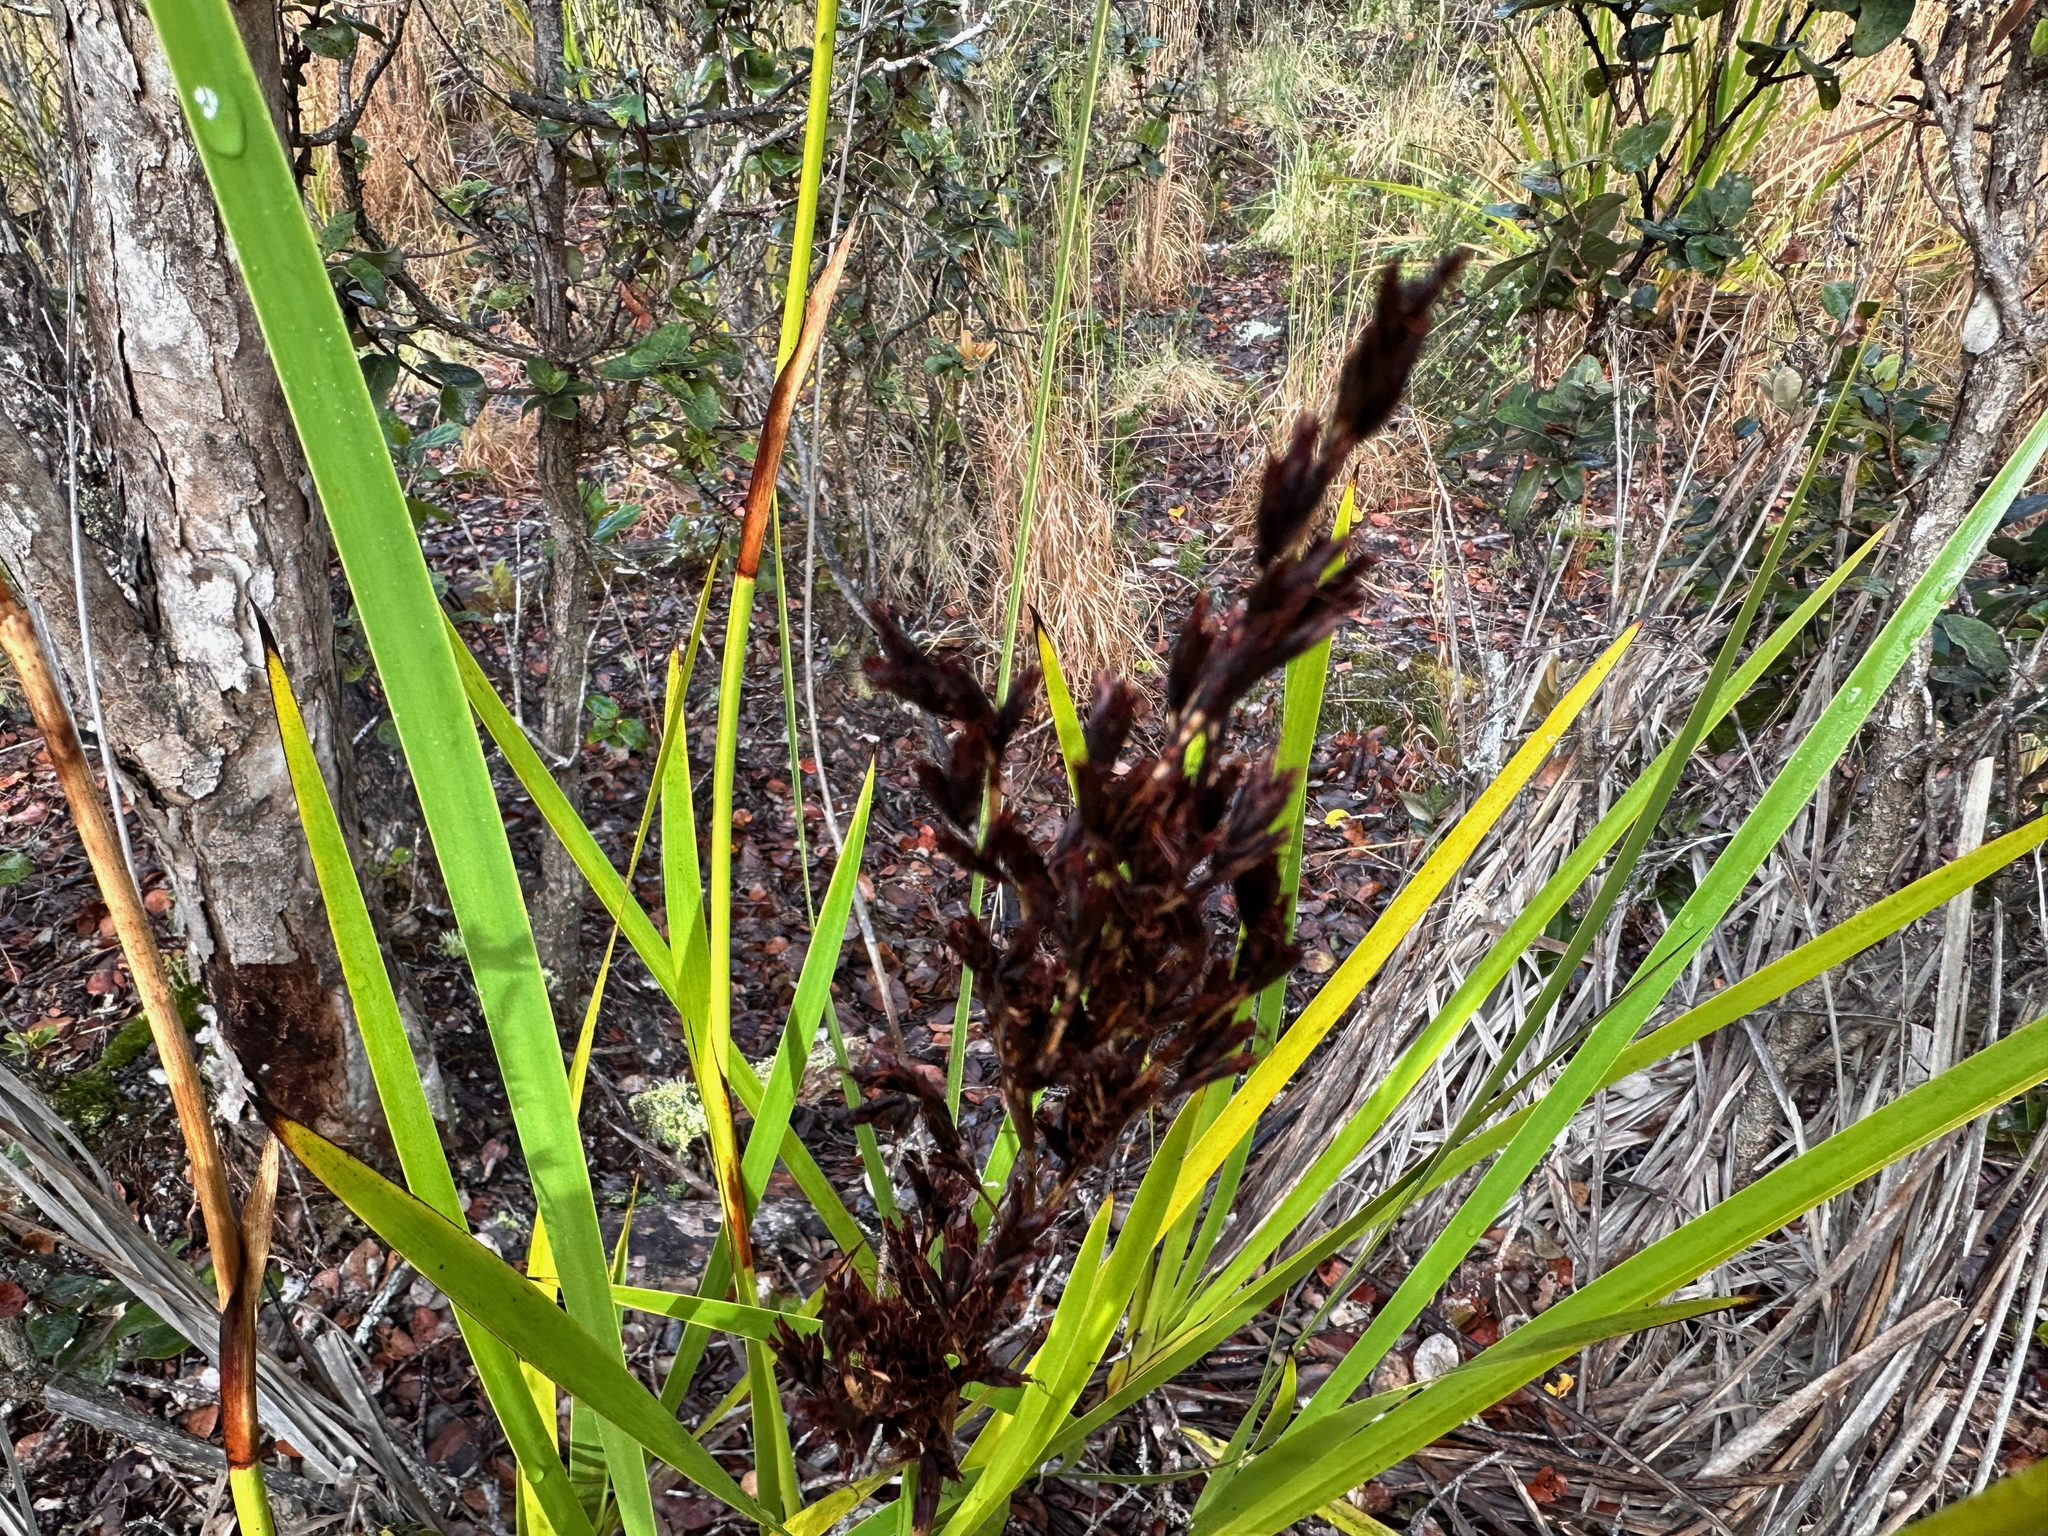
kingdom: Plantae
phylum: Tracheophyta
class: Liliopsida
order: Poales
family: Cyperaceae
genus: Machaerina
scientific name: Machaerina angustifolia
